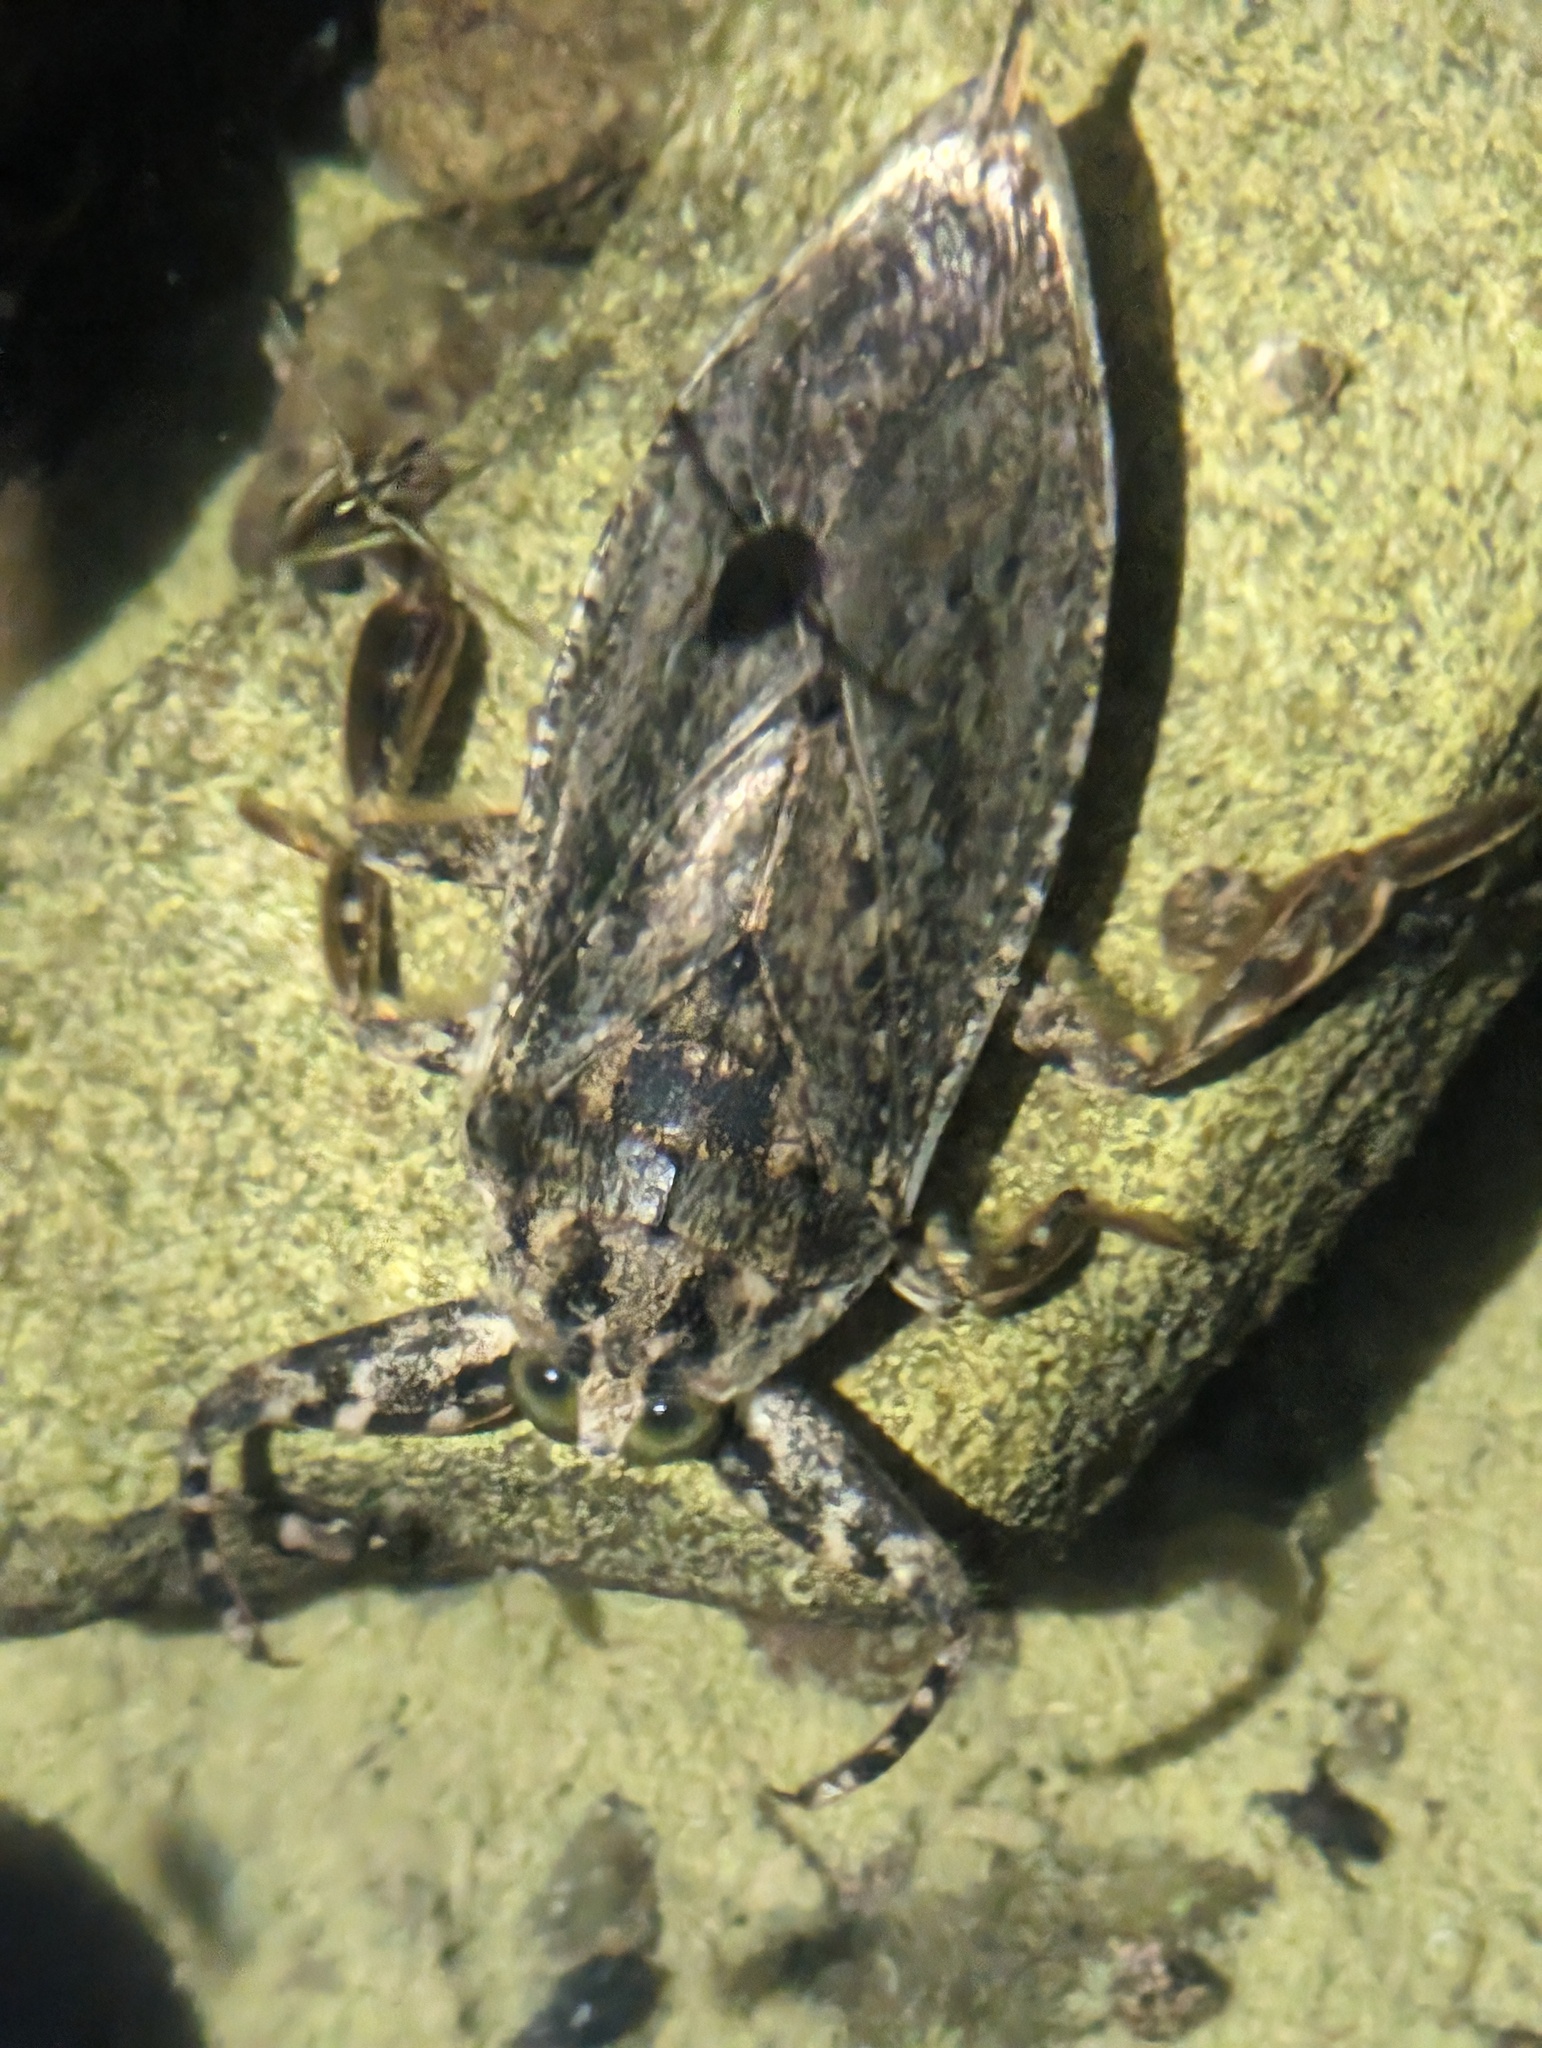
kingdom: Animalia
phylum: Arthropoda
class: Insecta
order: Hemiptera
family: Belostomatidae
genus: Lethocerus
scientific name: Lethocerus medius
